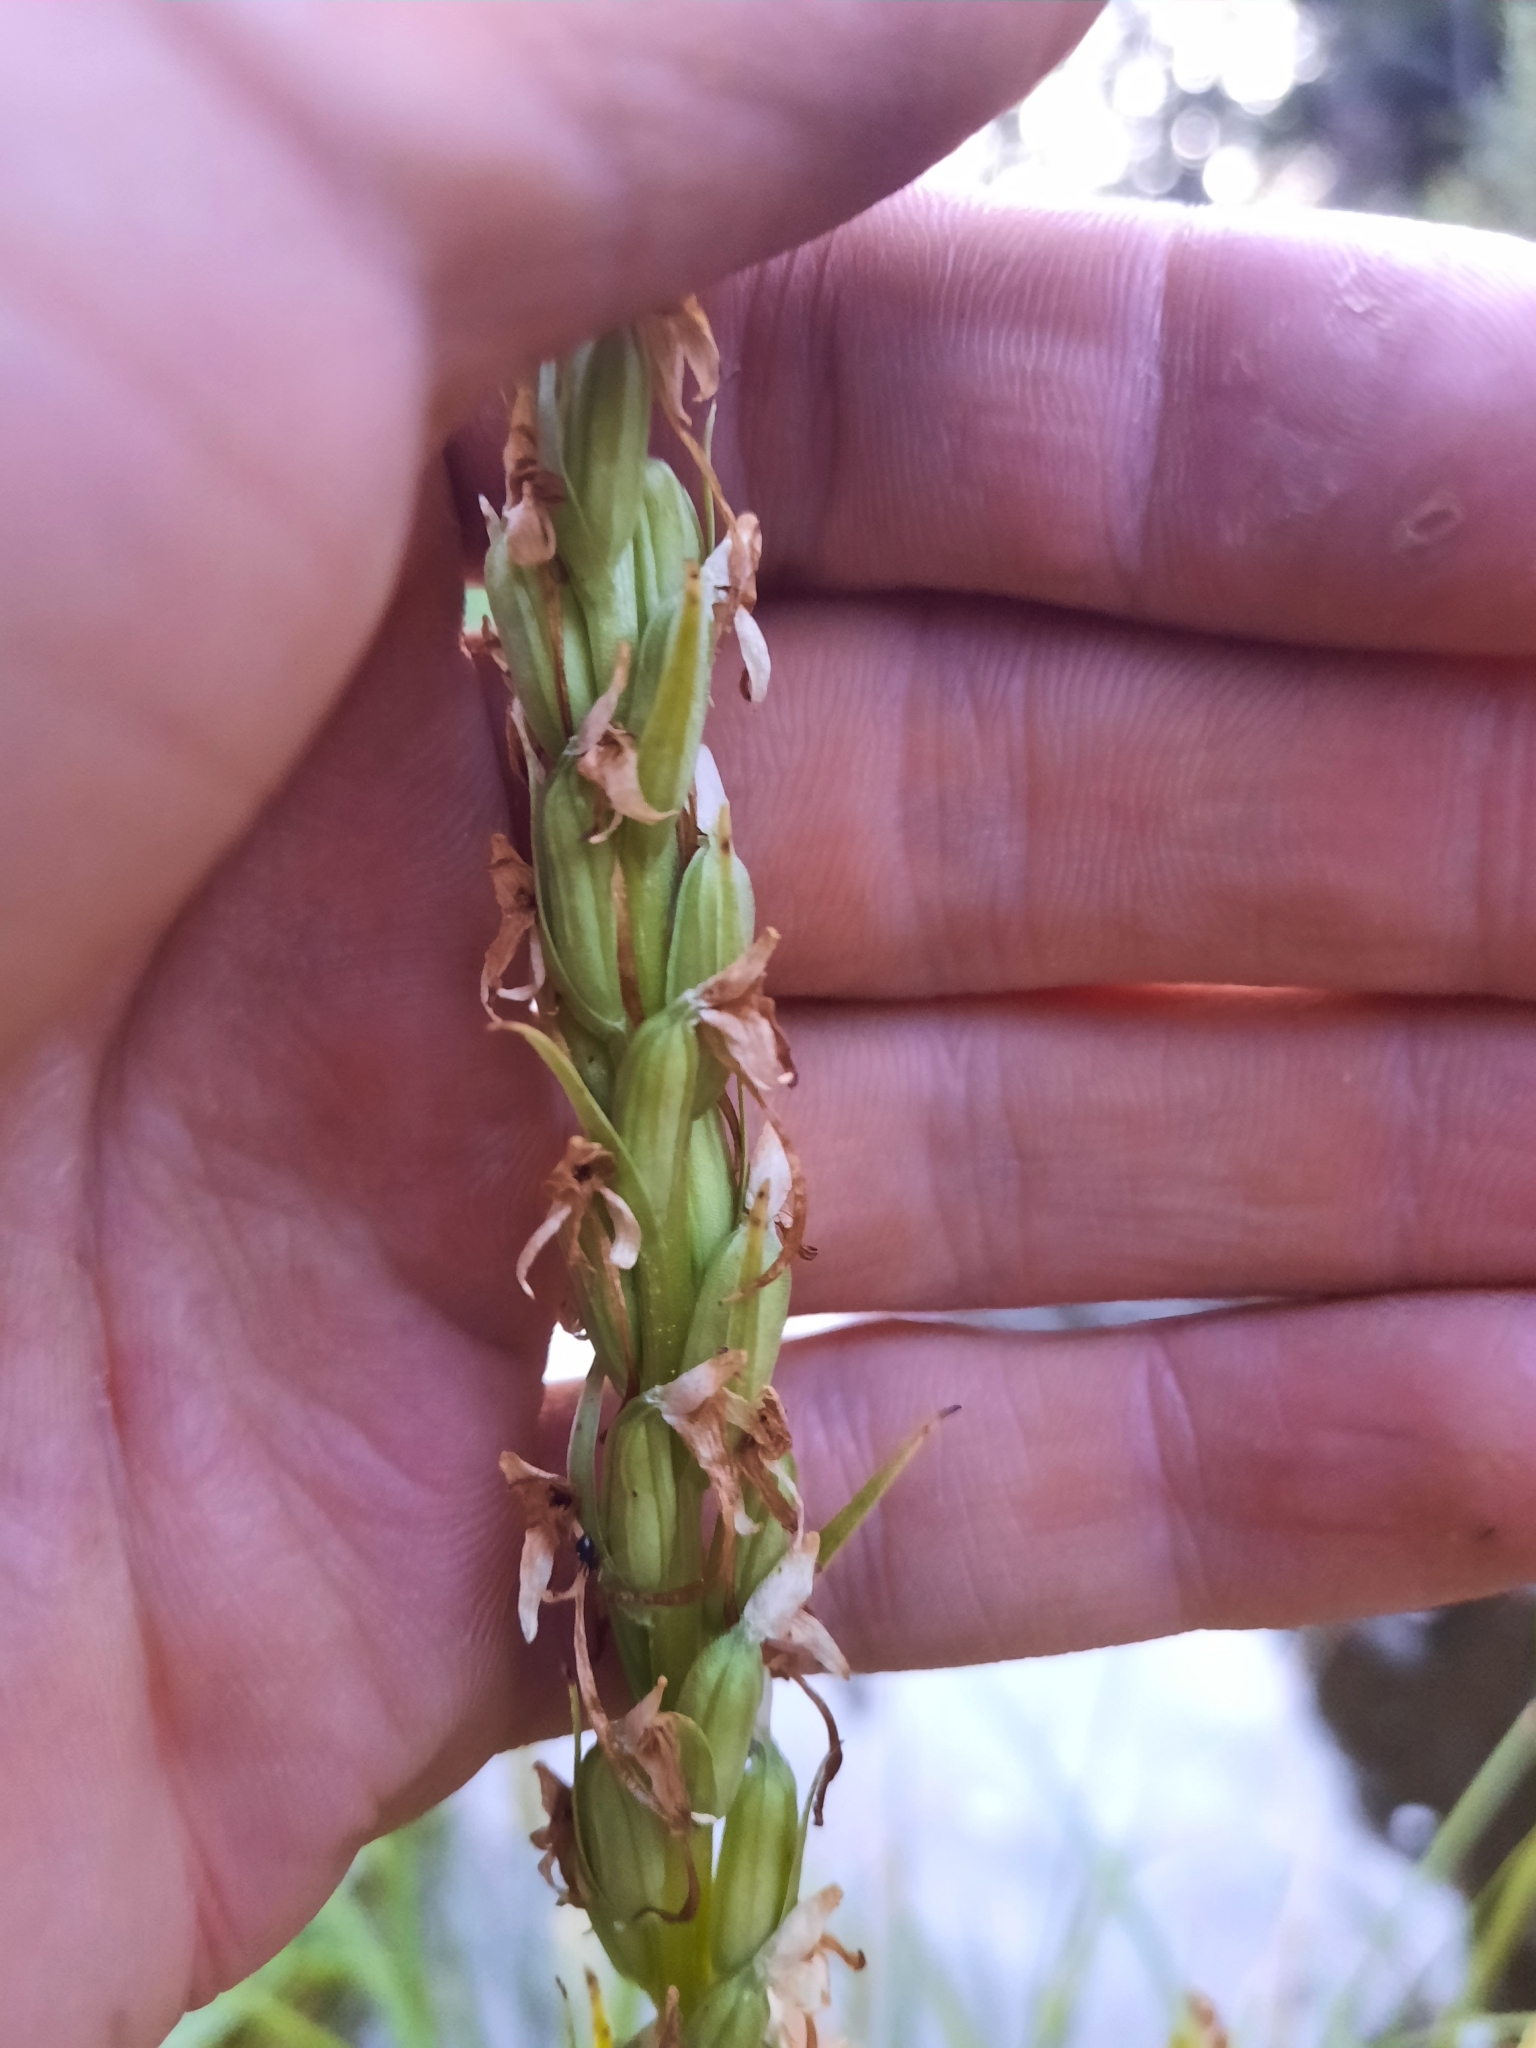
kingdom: Plantae
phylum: Tracheophyta
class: Liliopsida
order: Asparagales
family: Orchidaceae
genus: Platanthera
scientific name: Platanthera dilatata
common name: Bog candles
